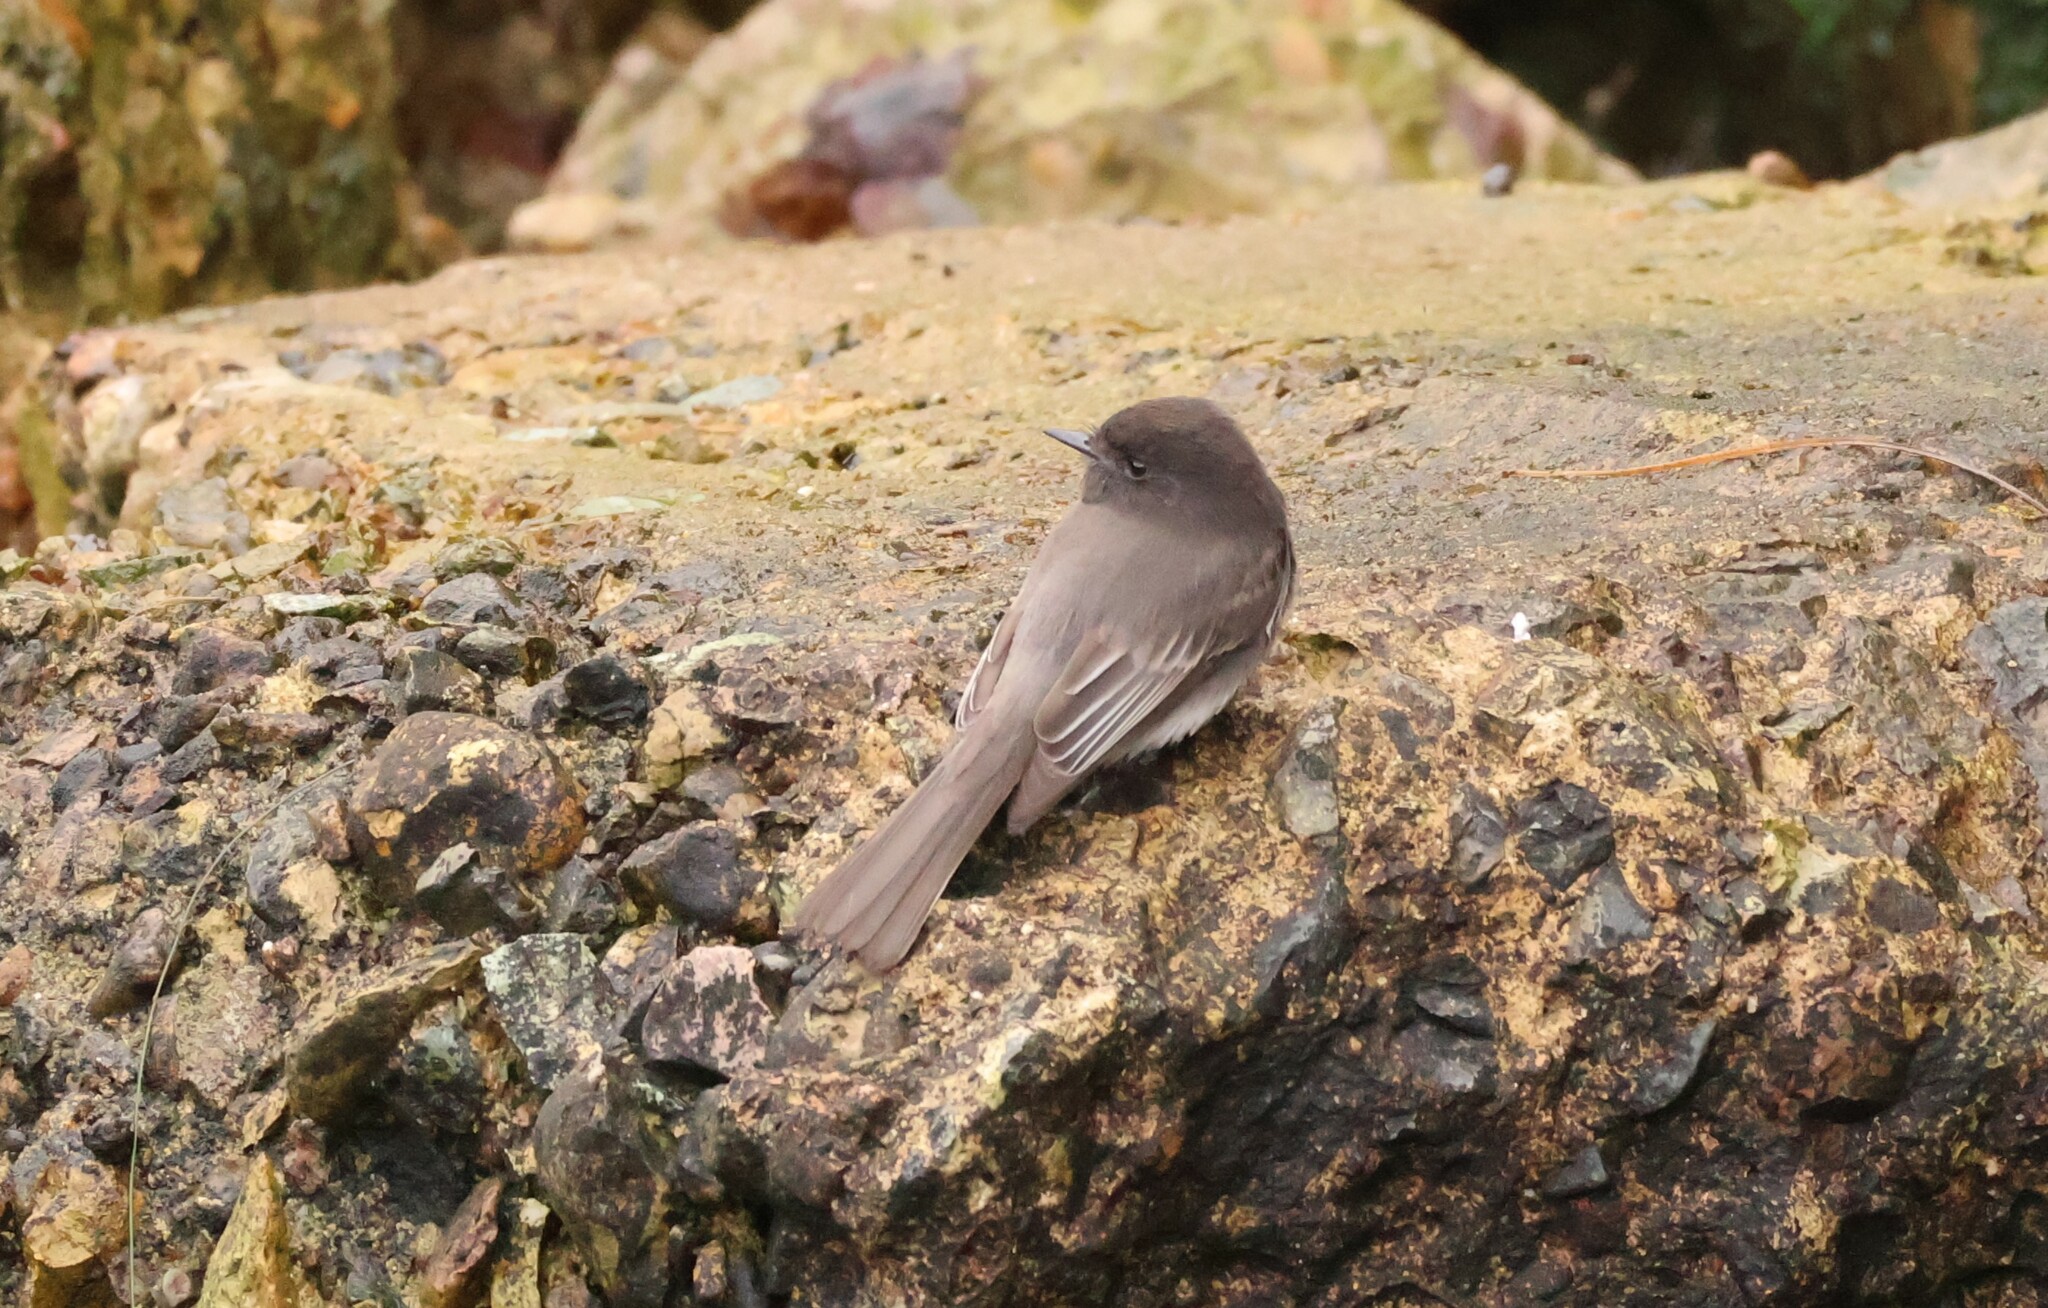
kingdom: Animalia
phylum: Chordata
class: Aves
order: Passeriformes
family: Tyrannidae
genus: Sayornis
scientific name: Sayornis nigricans
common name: Black phoebe
